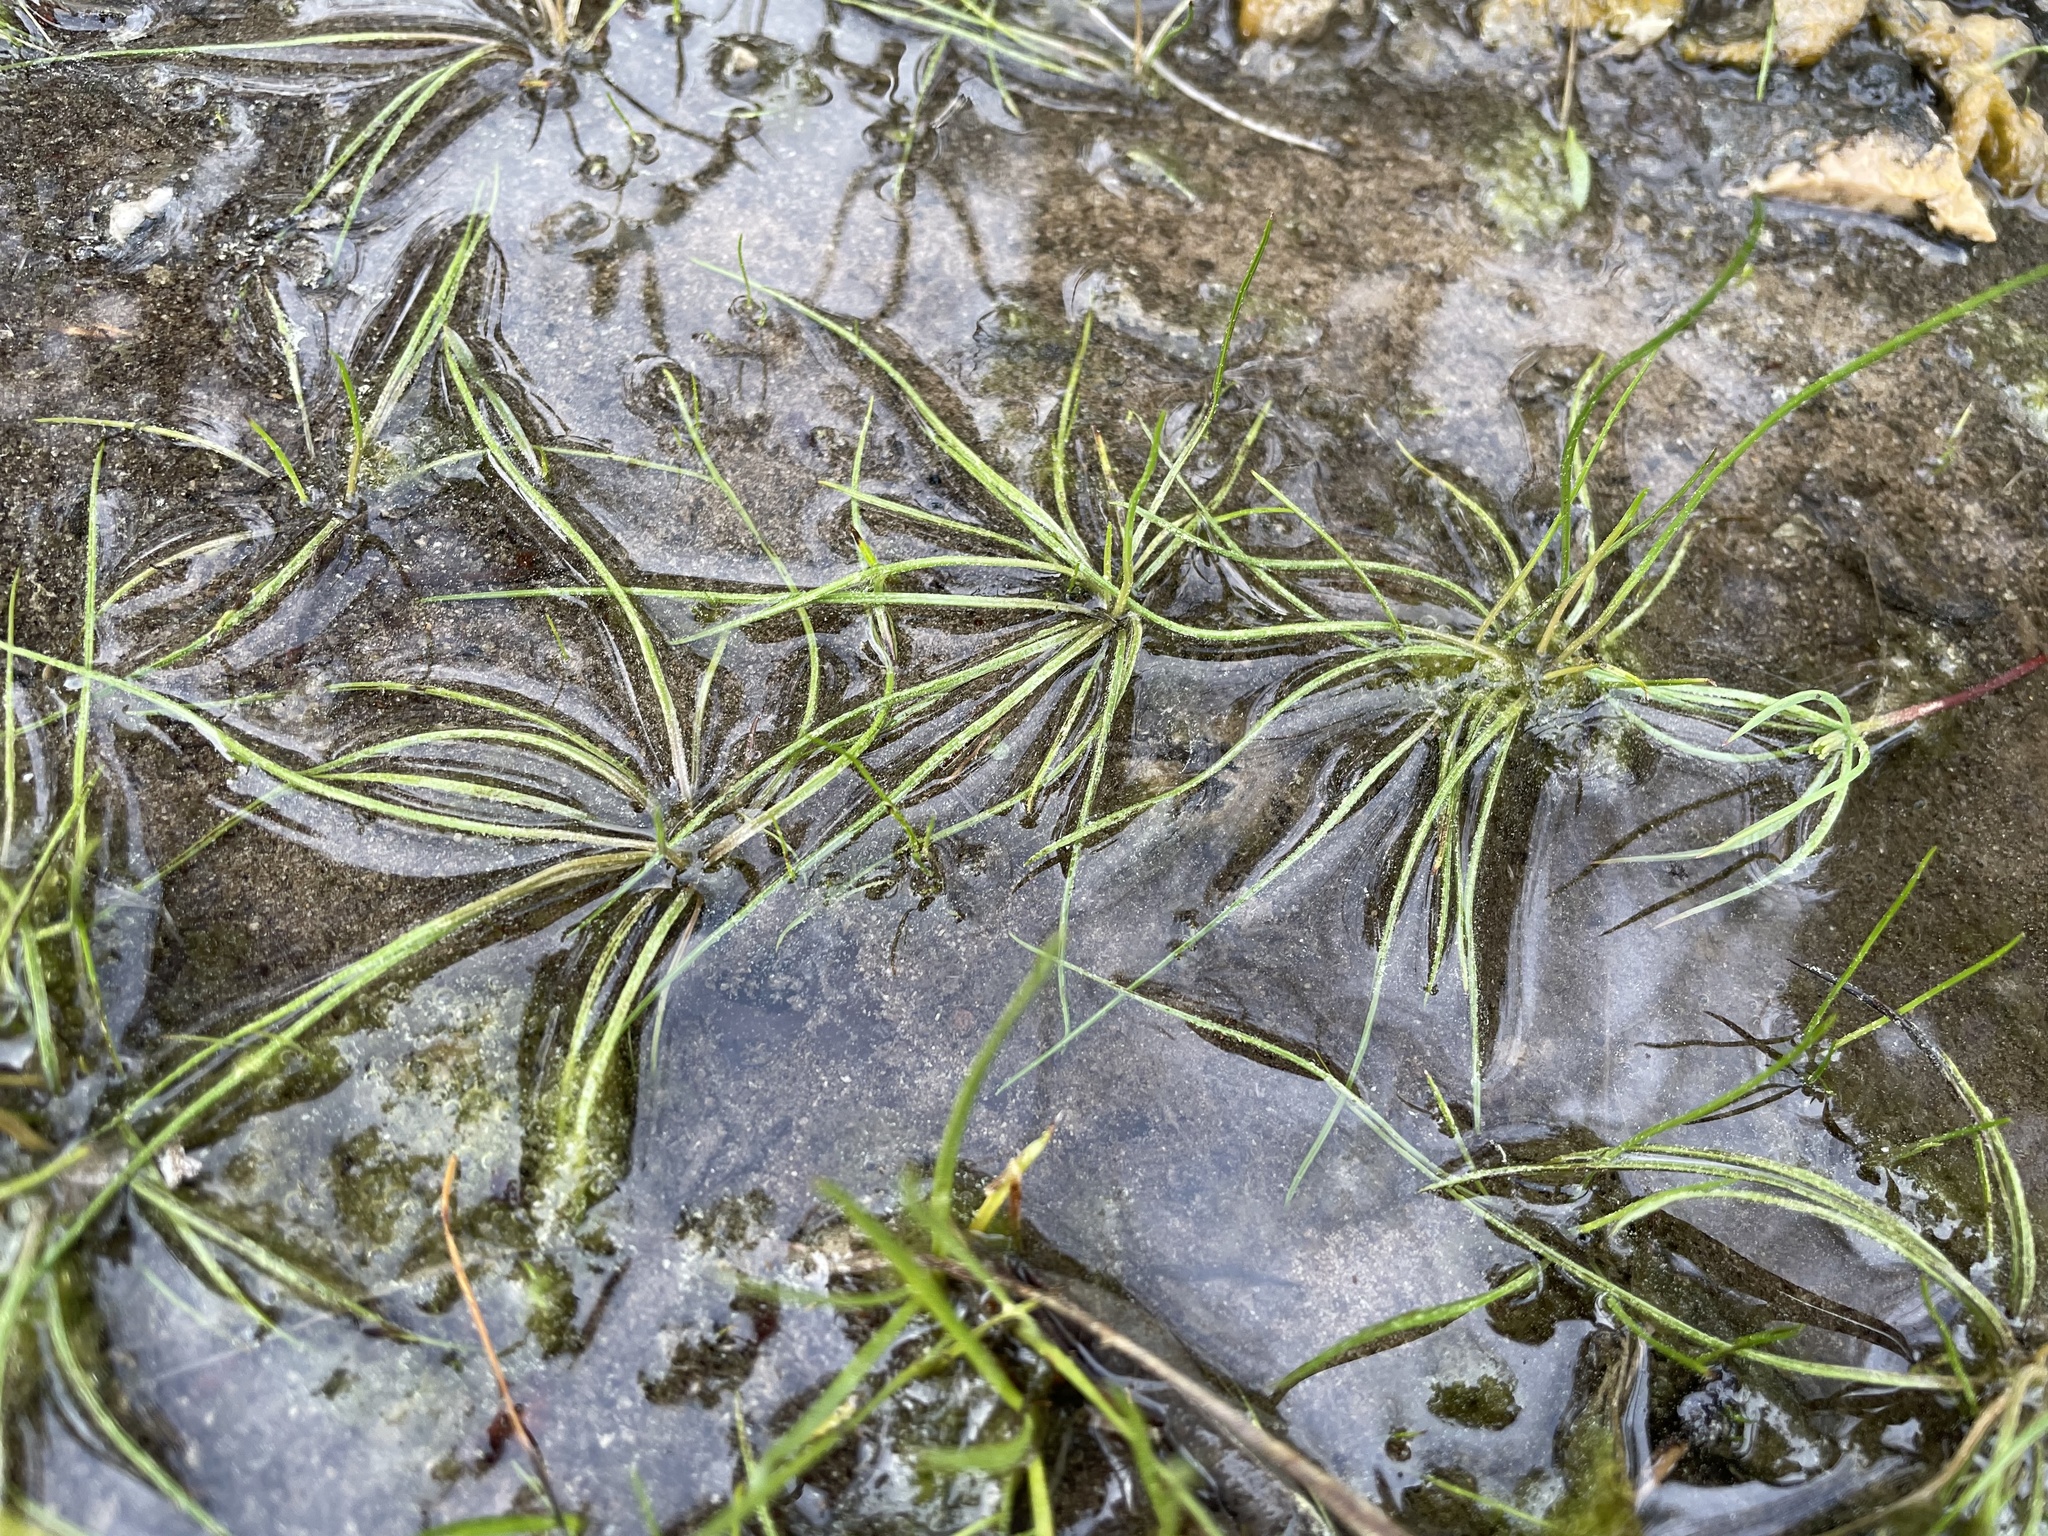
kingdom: Plantae
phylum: Tracheophyta
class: Lycopodiopsida
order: Isoetales
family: Isoetaceae
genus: Isoetes
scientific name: Isoetes butleri
